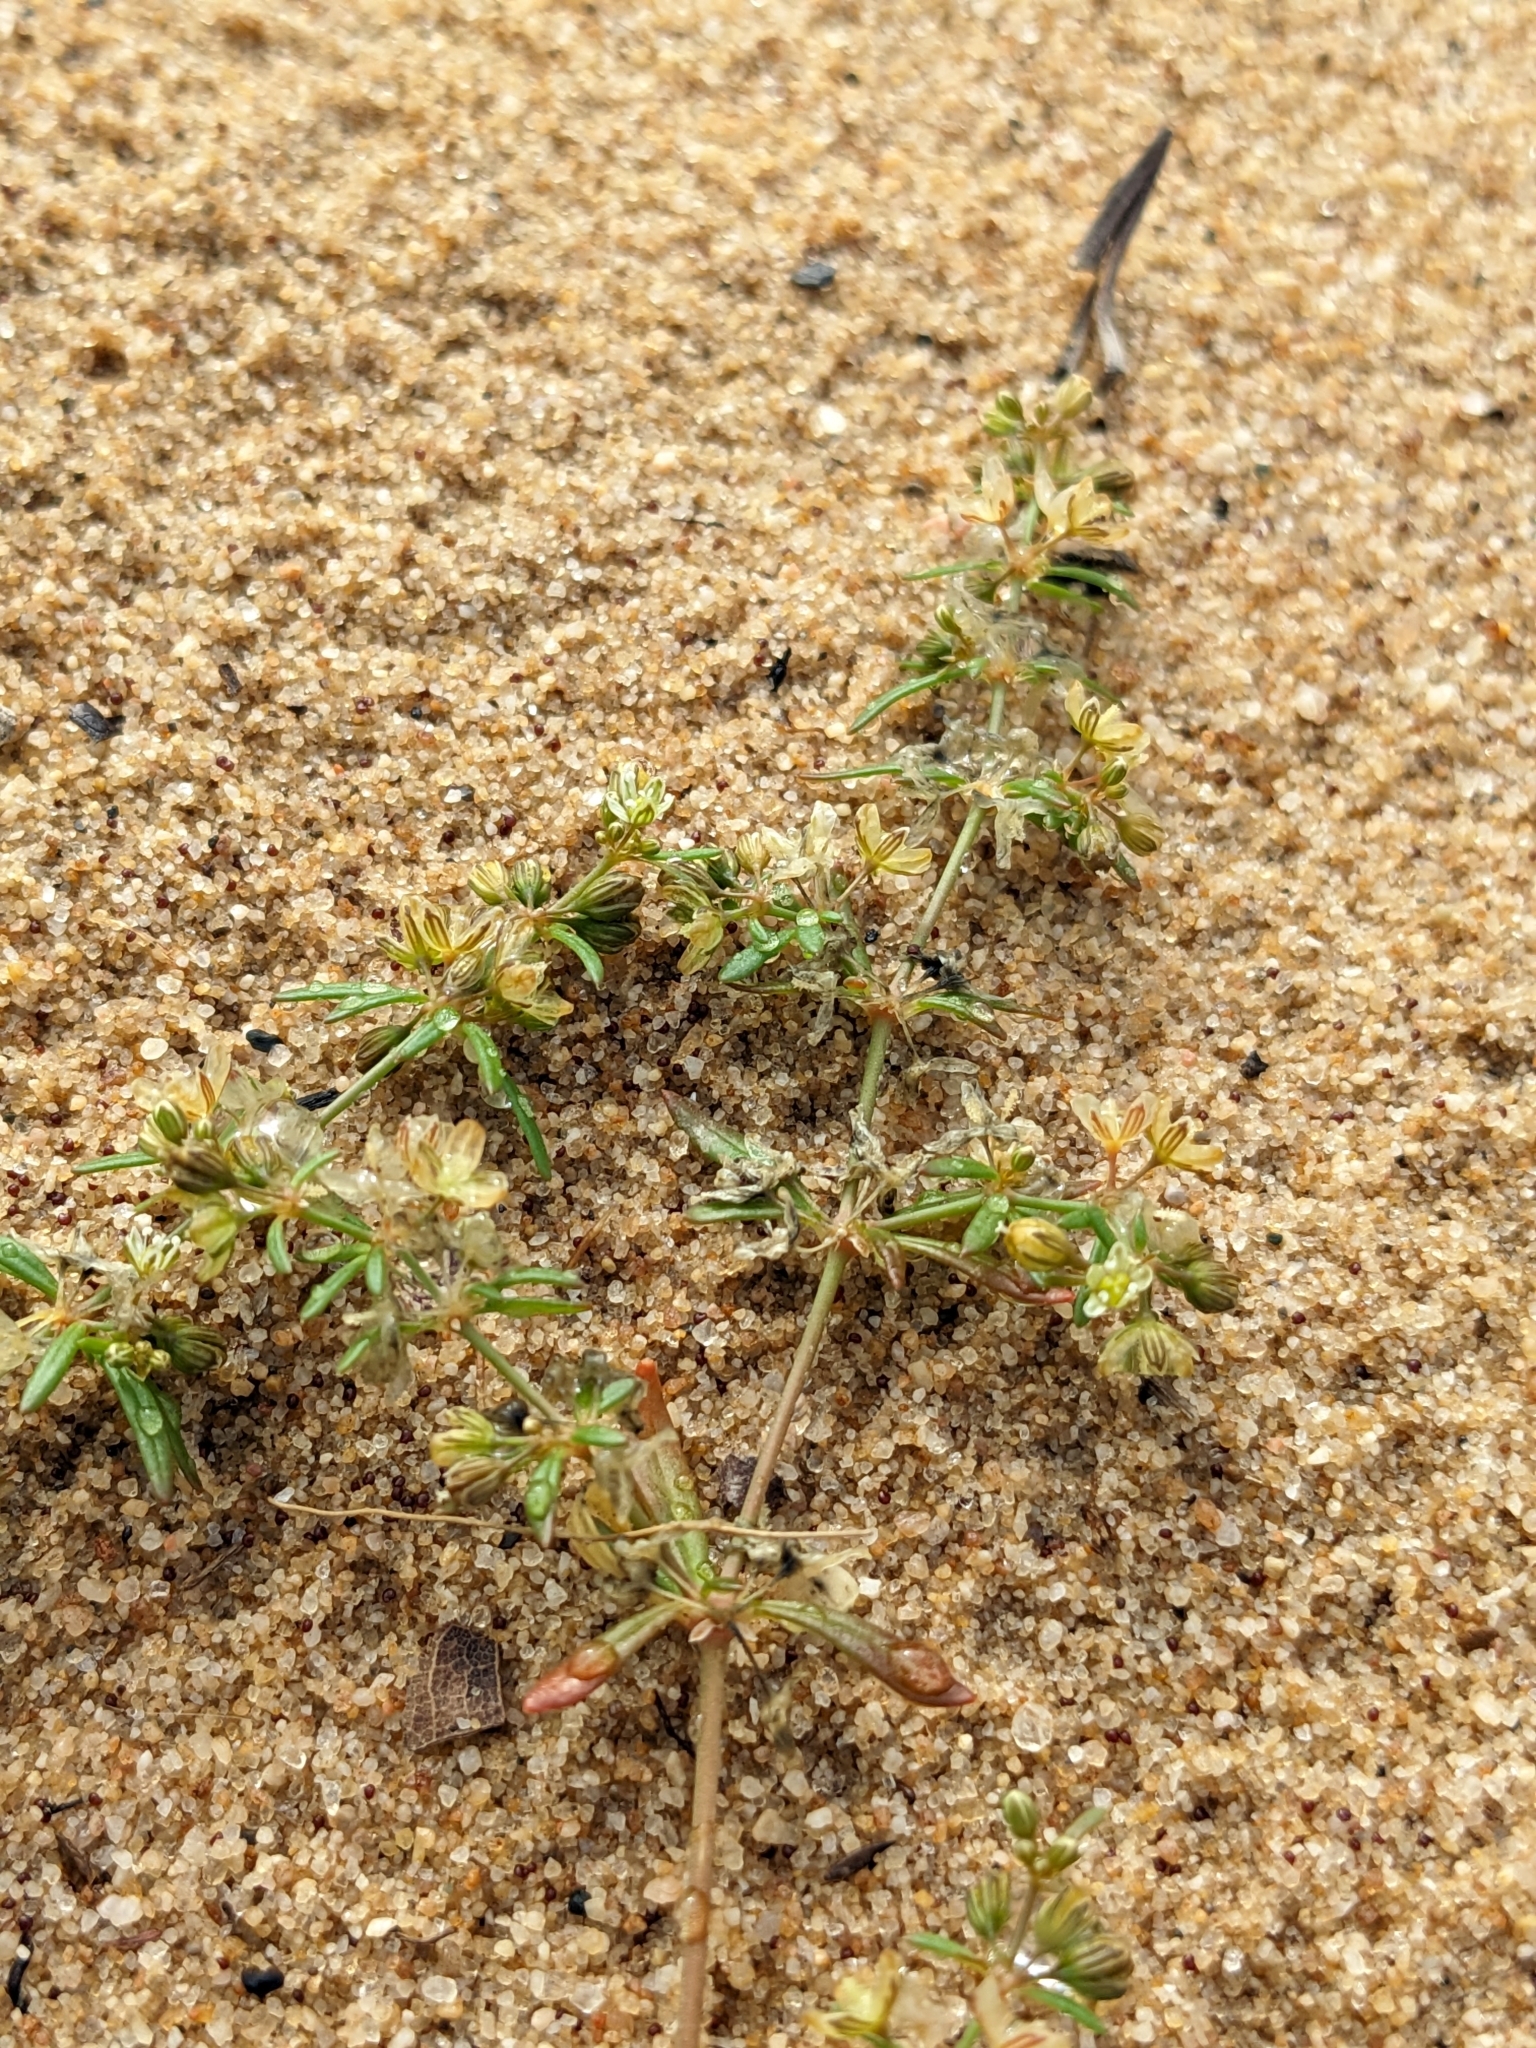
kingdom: Plantae
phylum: Tracheophyta
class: Magnoliopsida
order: Caryophyllales
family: Molluginaceae
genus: Mollugo
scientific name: Mollugo verticillata
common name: Green carpetweed
